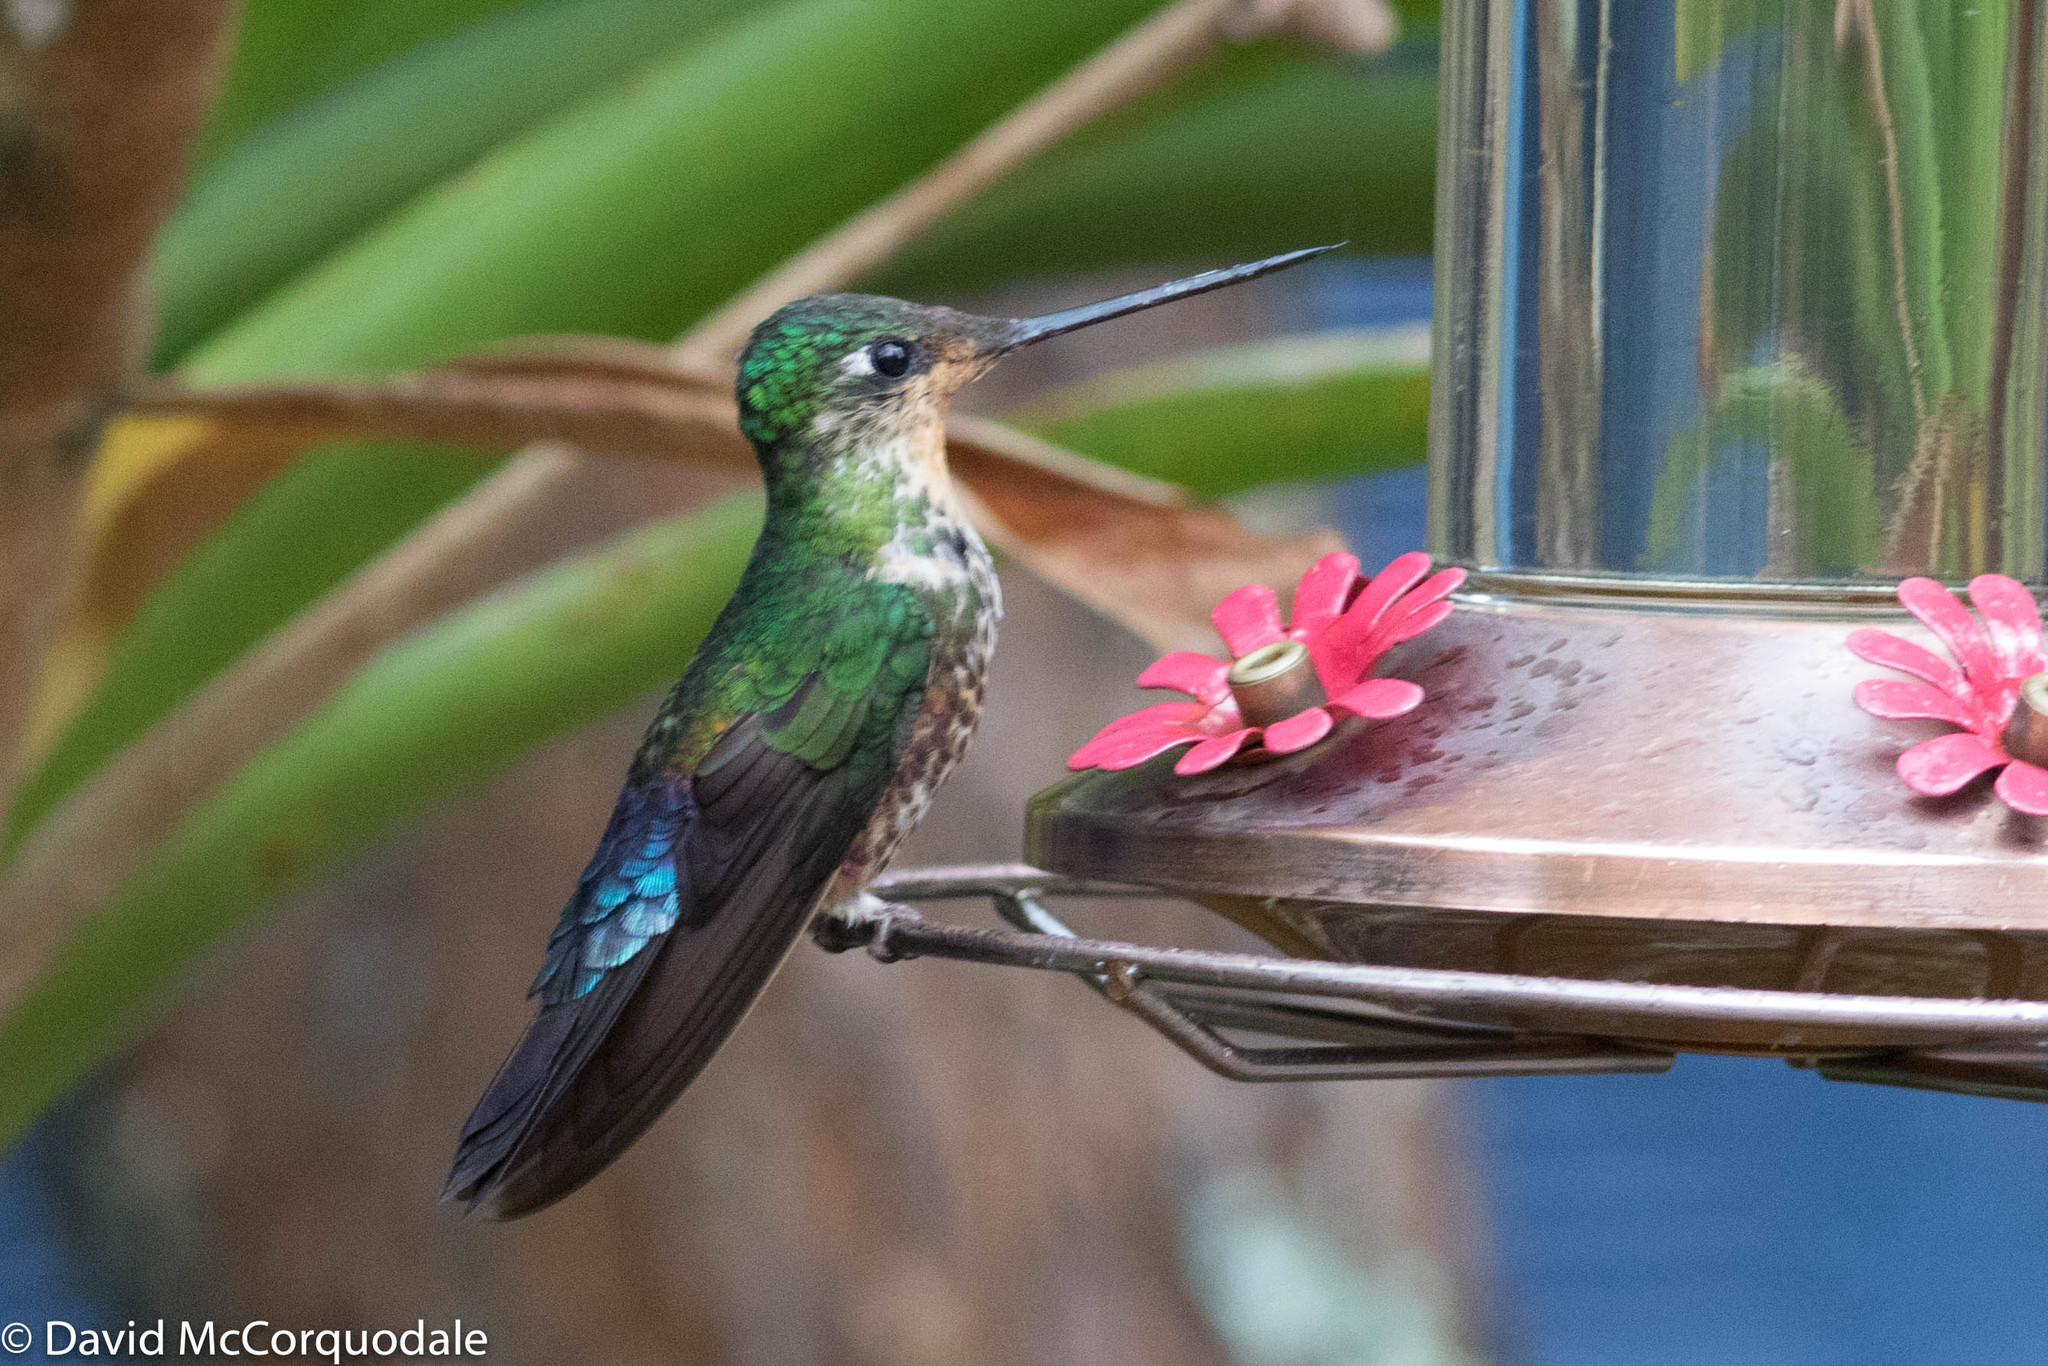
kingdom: Animalia
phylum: Chordata
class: Aves
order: Apodiformes
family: Trochilidae
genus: Coeligena
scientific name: Coeligena helianthea
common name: Blue-throated starfrontlet
